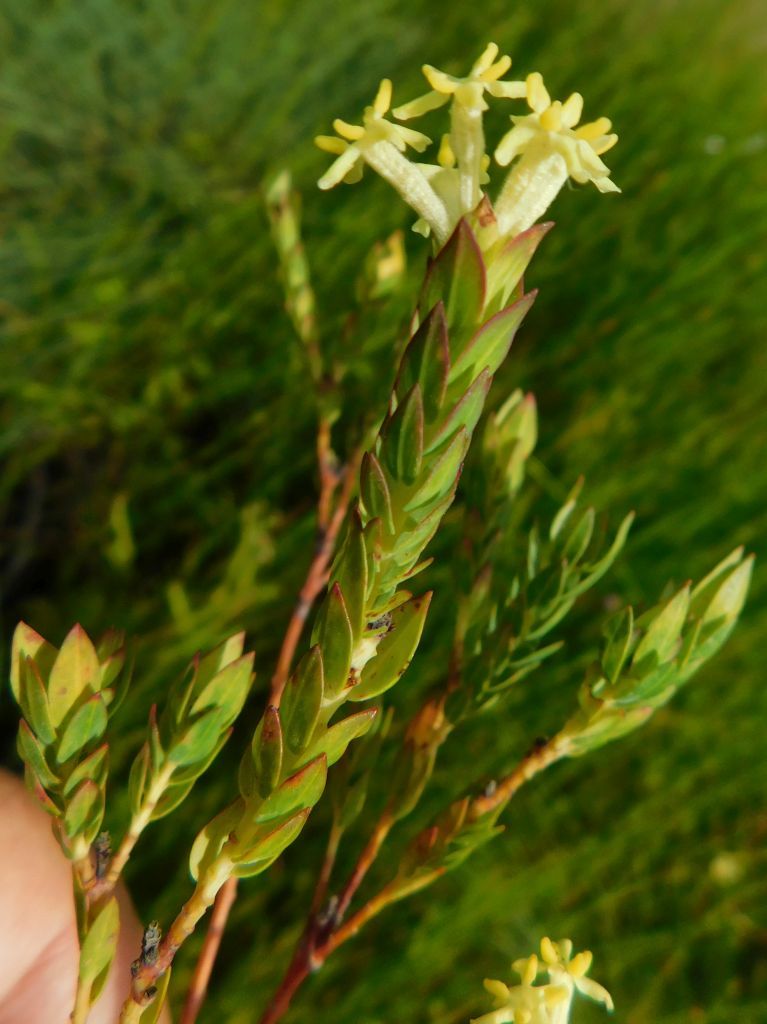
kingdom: Plantae
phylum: Tracheophyta
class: Magnoliopsida
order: Malvales
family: Thymelaeaceae
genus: Gnidia
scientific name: Gnidia oppositifolia
